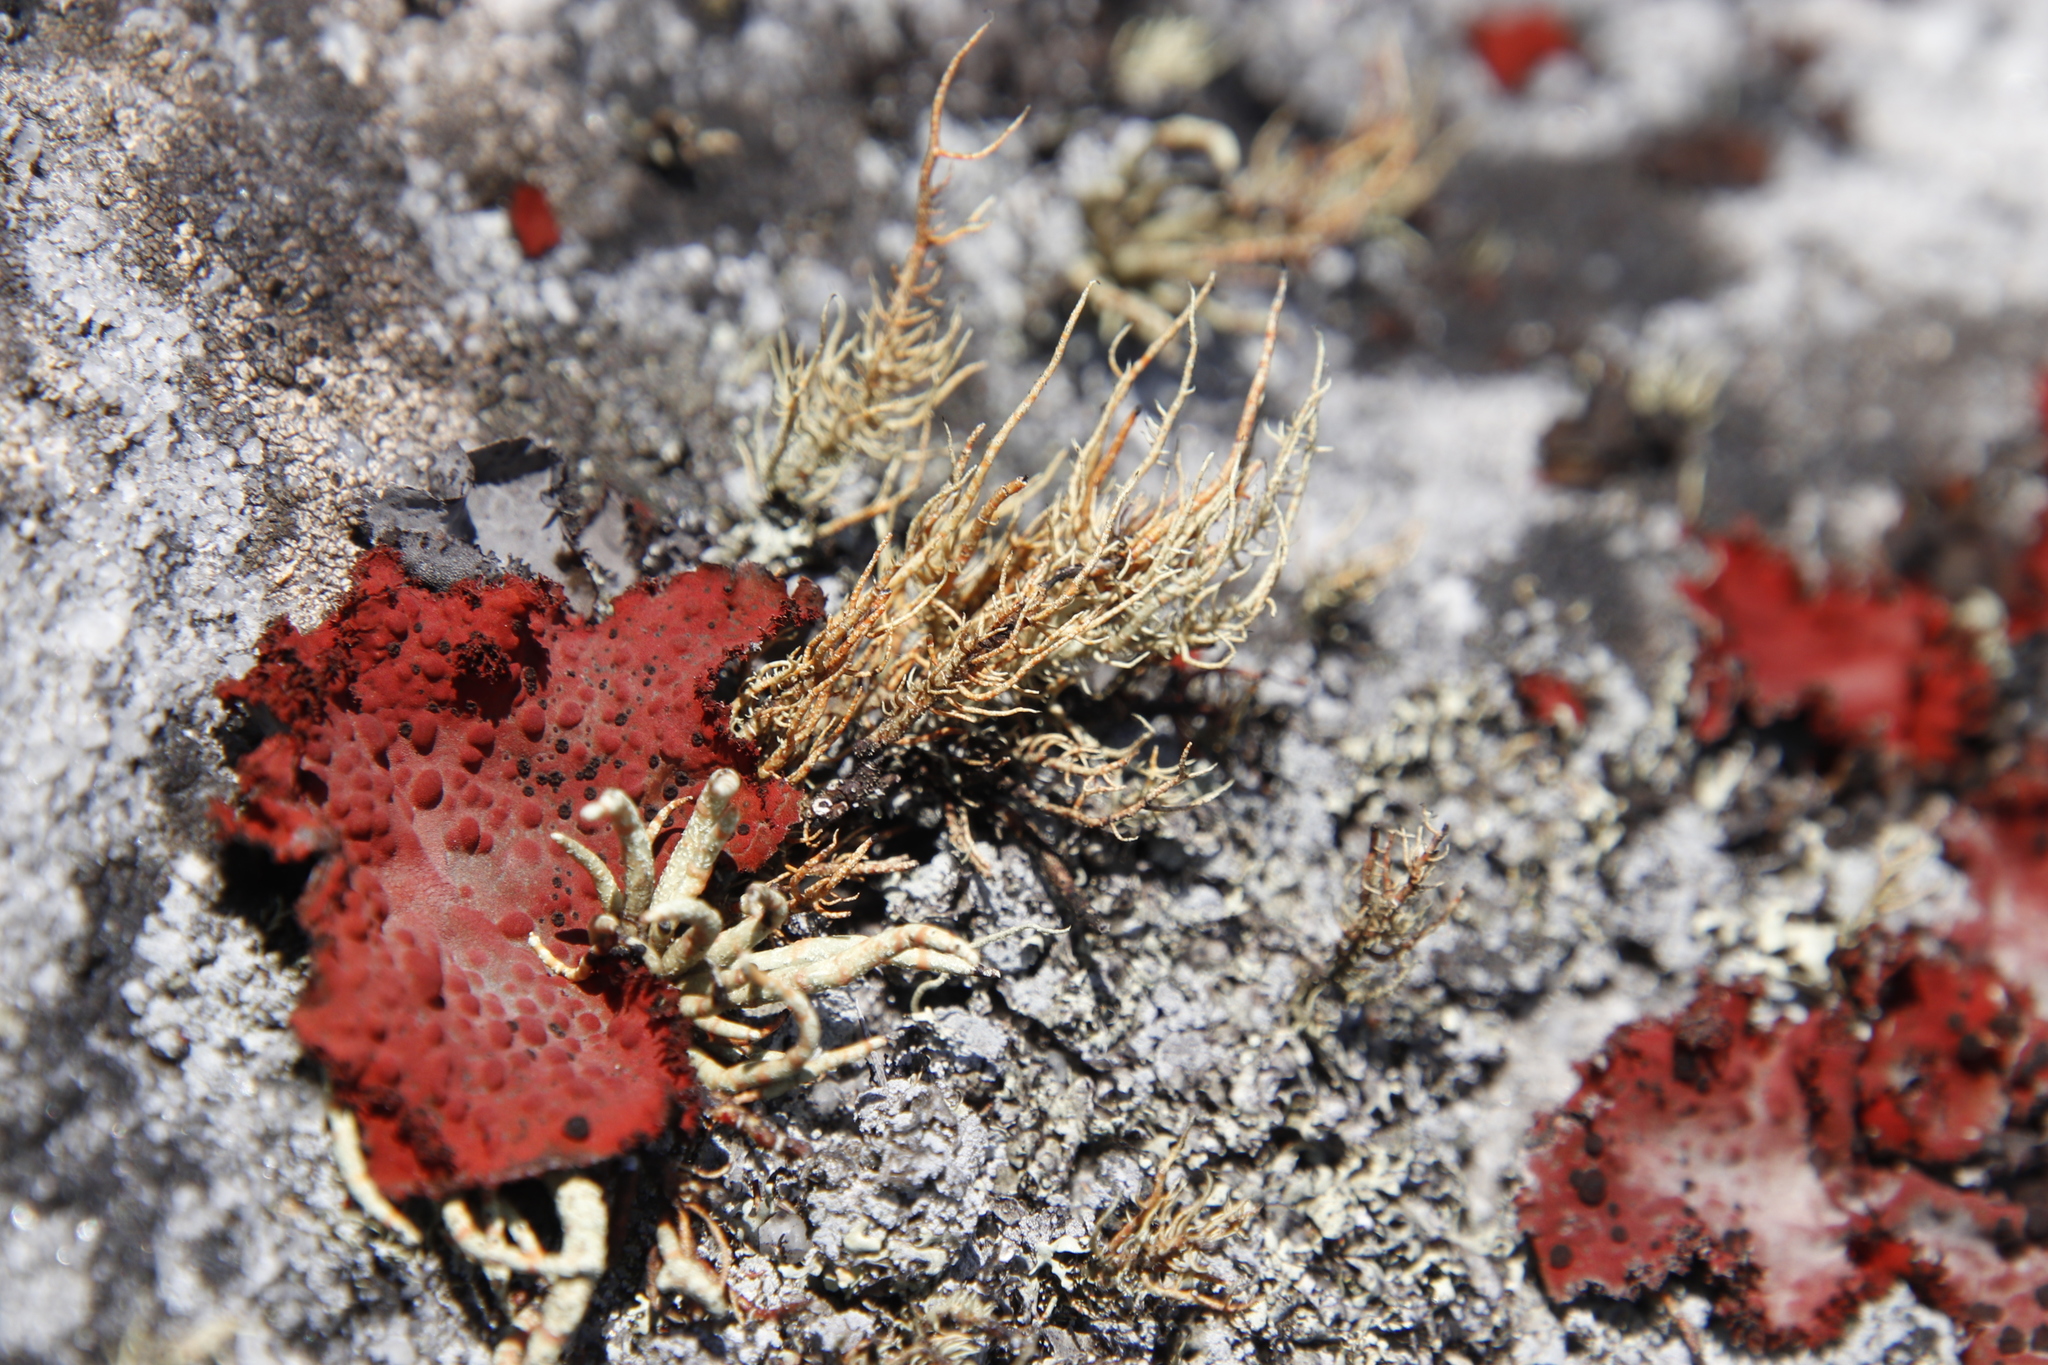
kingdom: Fungi
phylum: Ascomycota
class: Lecanoromycetes
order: Lecanorales
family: Parmeliaceae
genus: Usnea
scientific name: Usnea maculata
